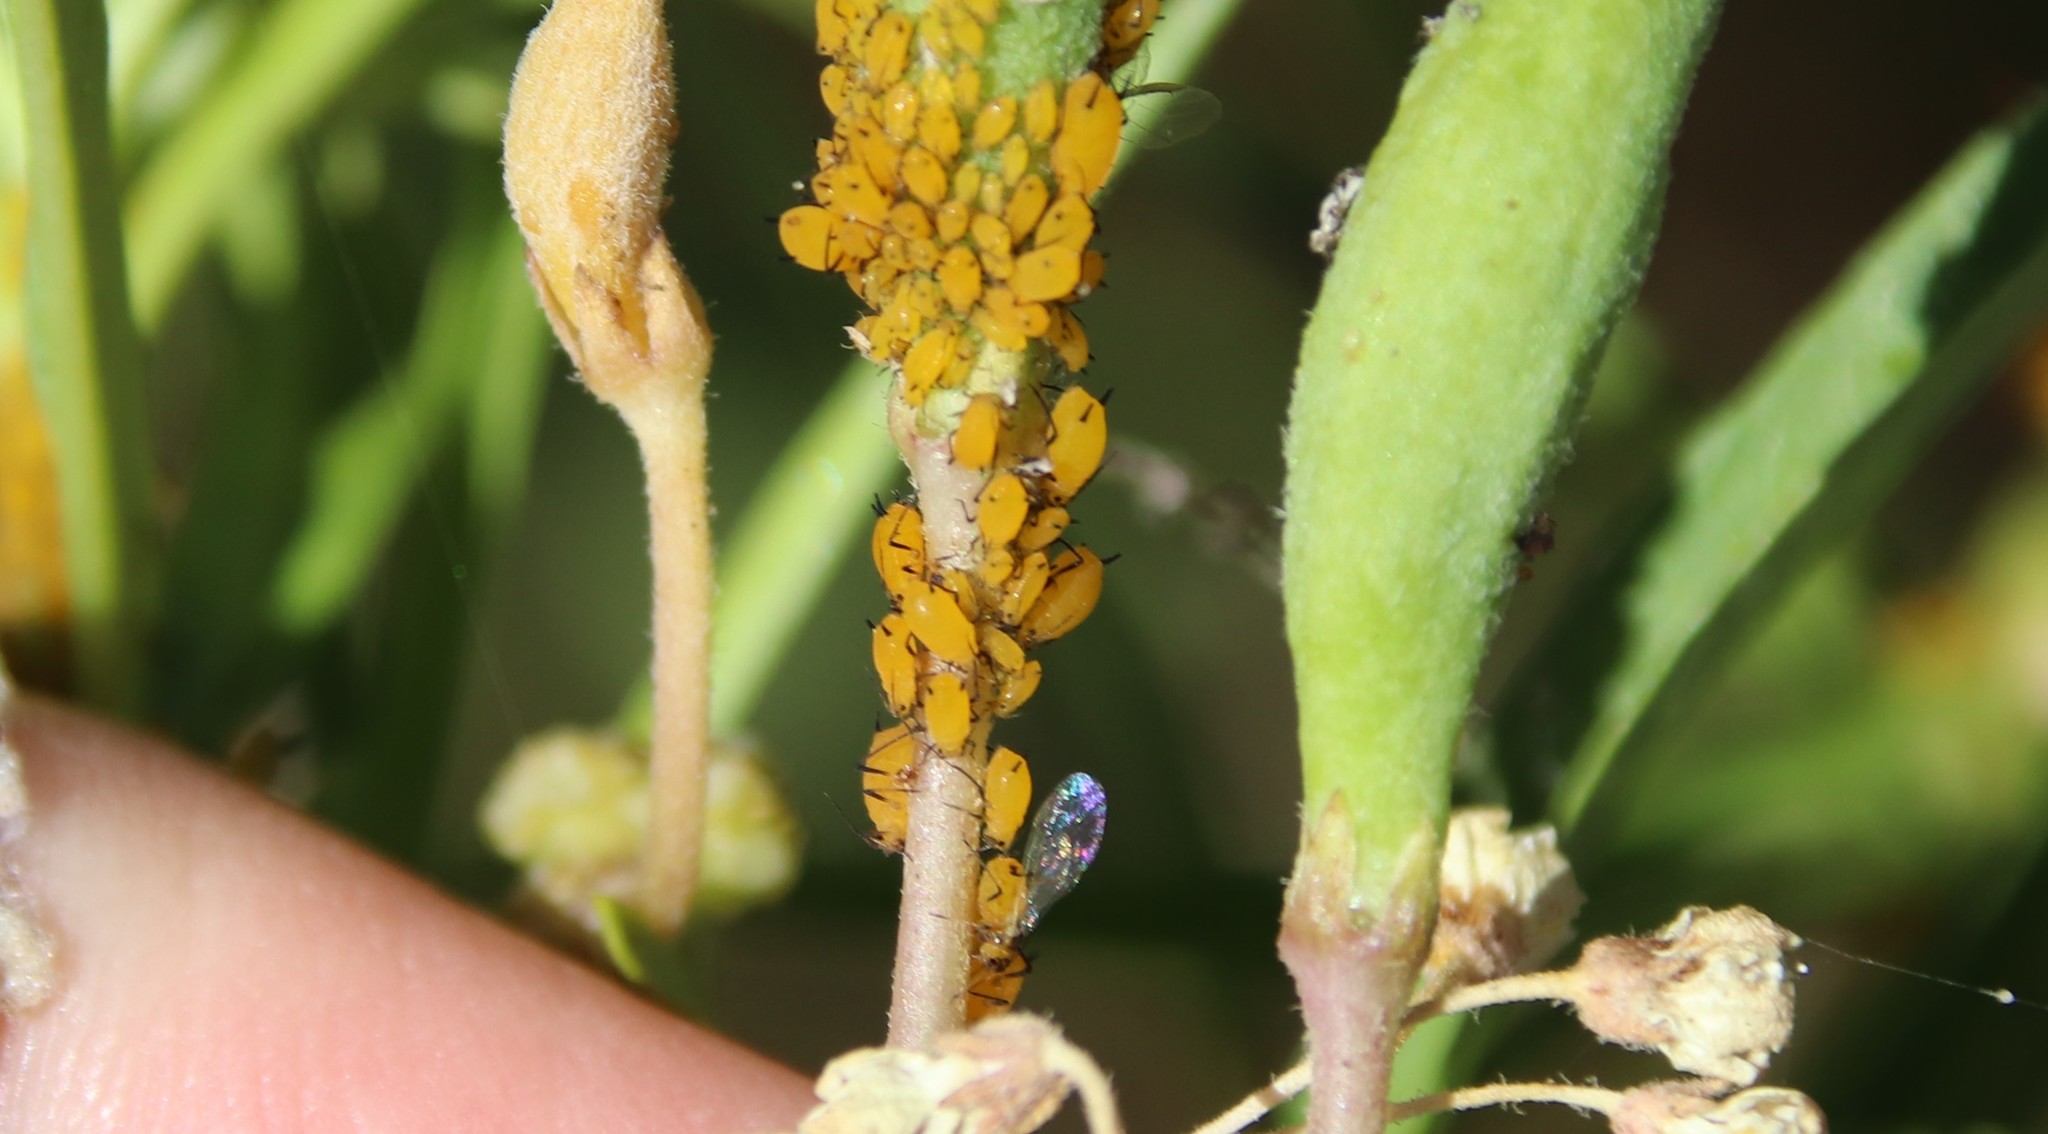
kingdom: Animalia
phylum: Arthropoda
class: Insecta
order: Hemiptera
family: Aphididae
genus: Aphis
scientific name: Aphis nerii
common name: Oleander aphid
